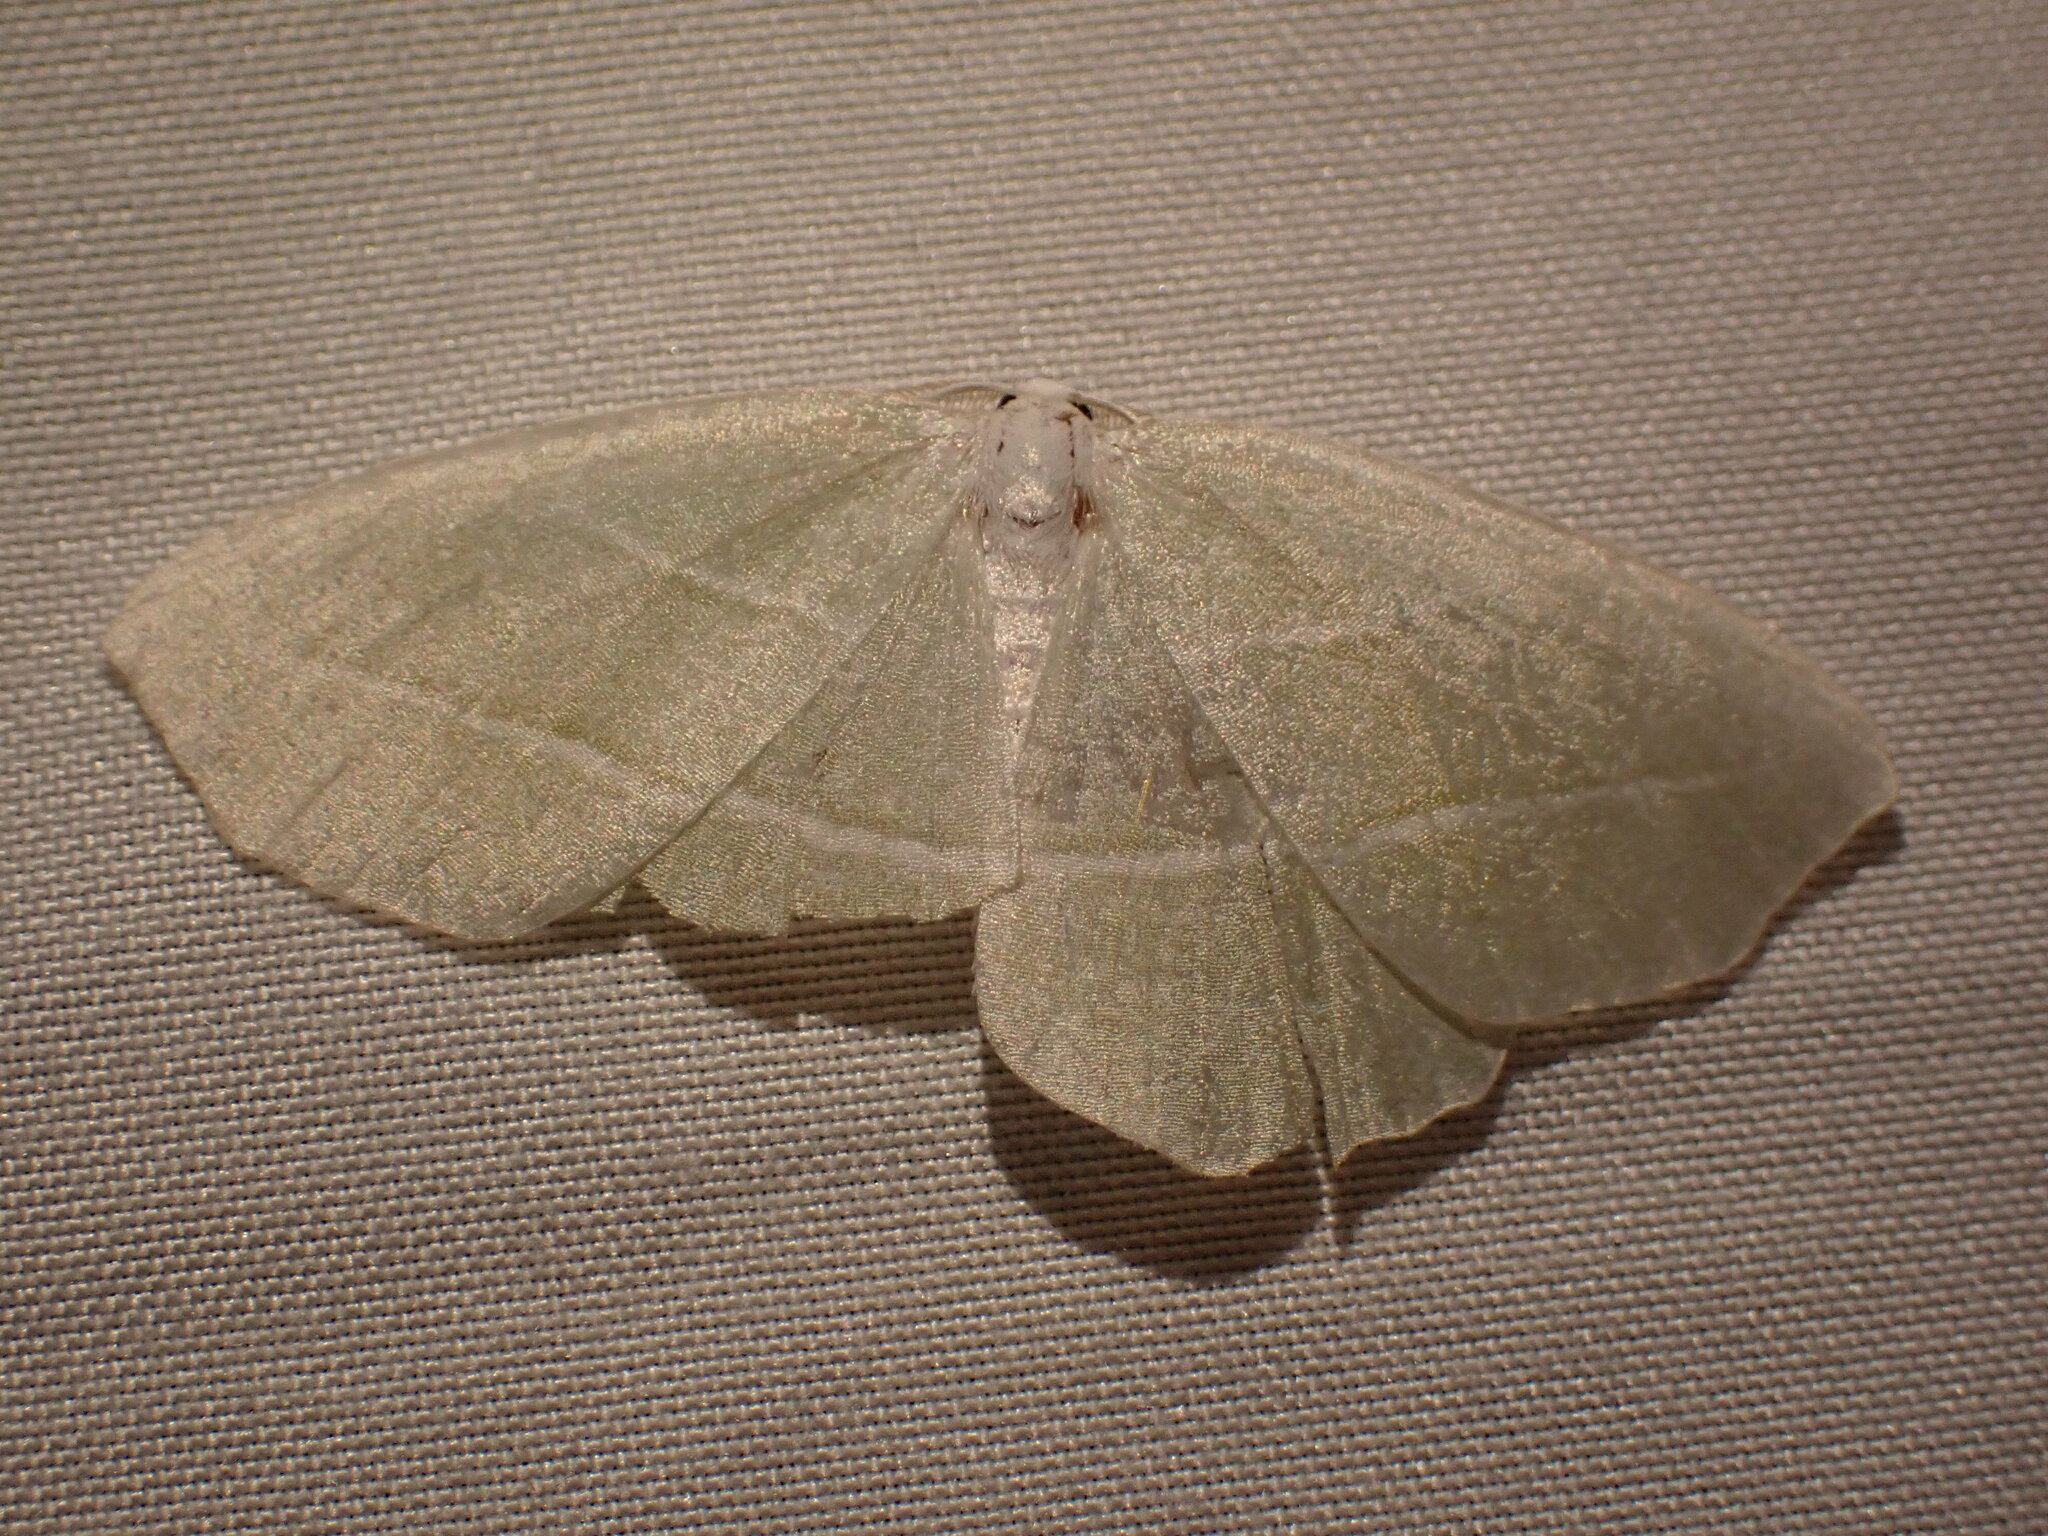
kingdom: Animalia
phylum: Arthropoda
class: Insecta
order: Lepidoptera
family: Geometridae
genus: Campaea
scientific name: Campaea perlata
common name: Fringed looper
